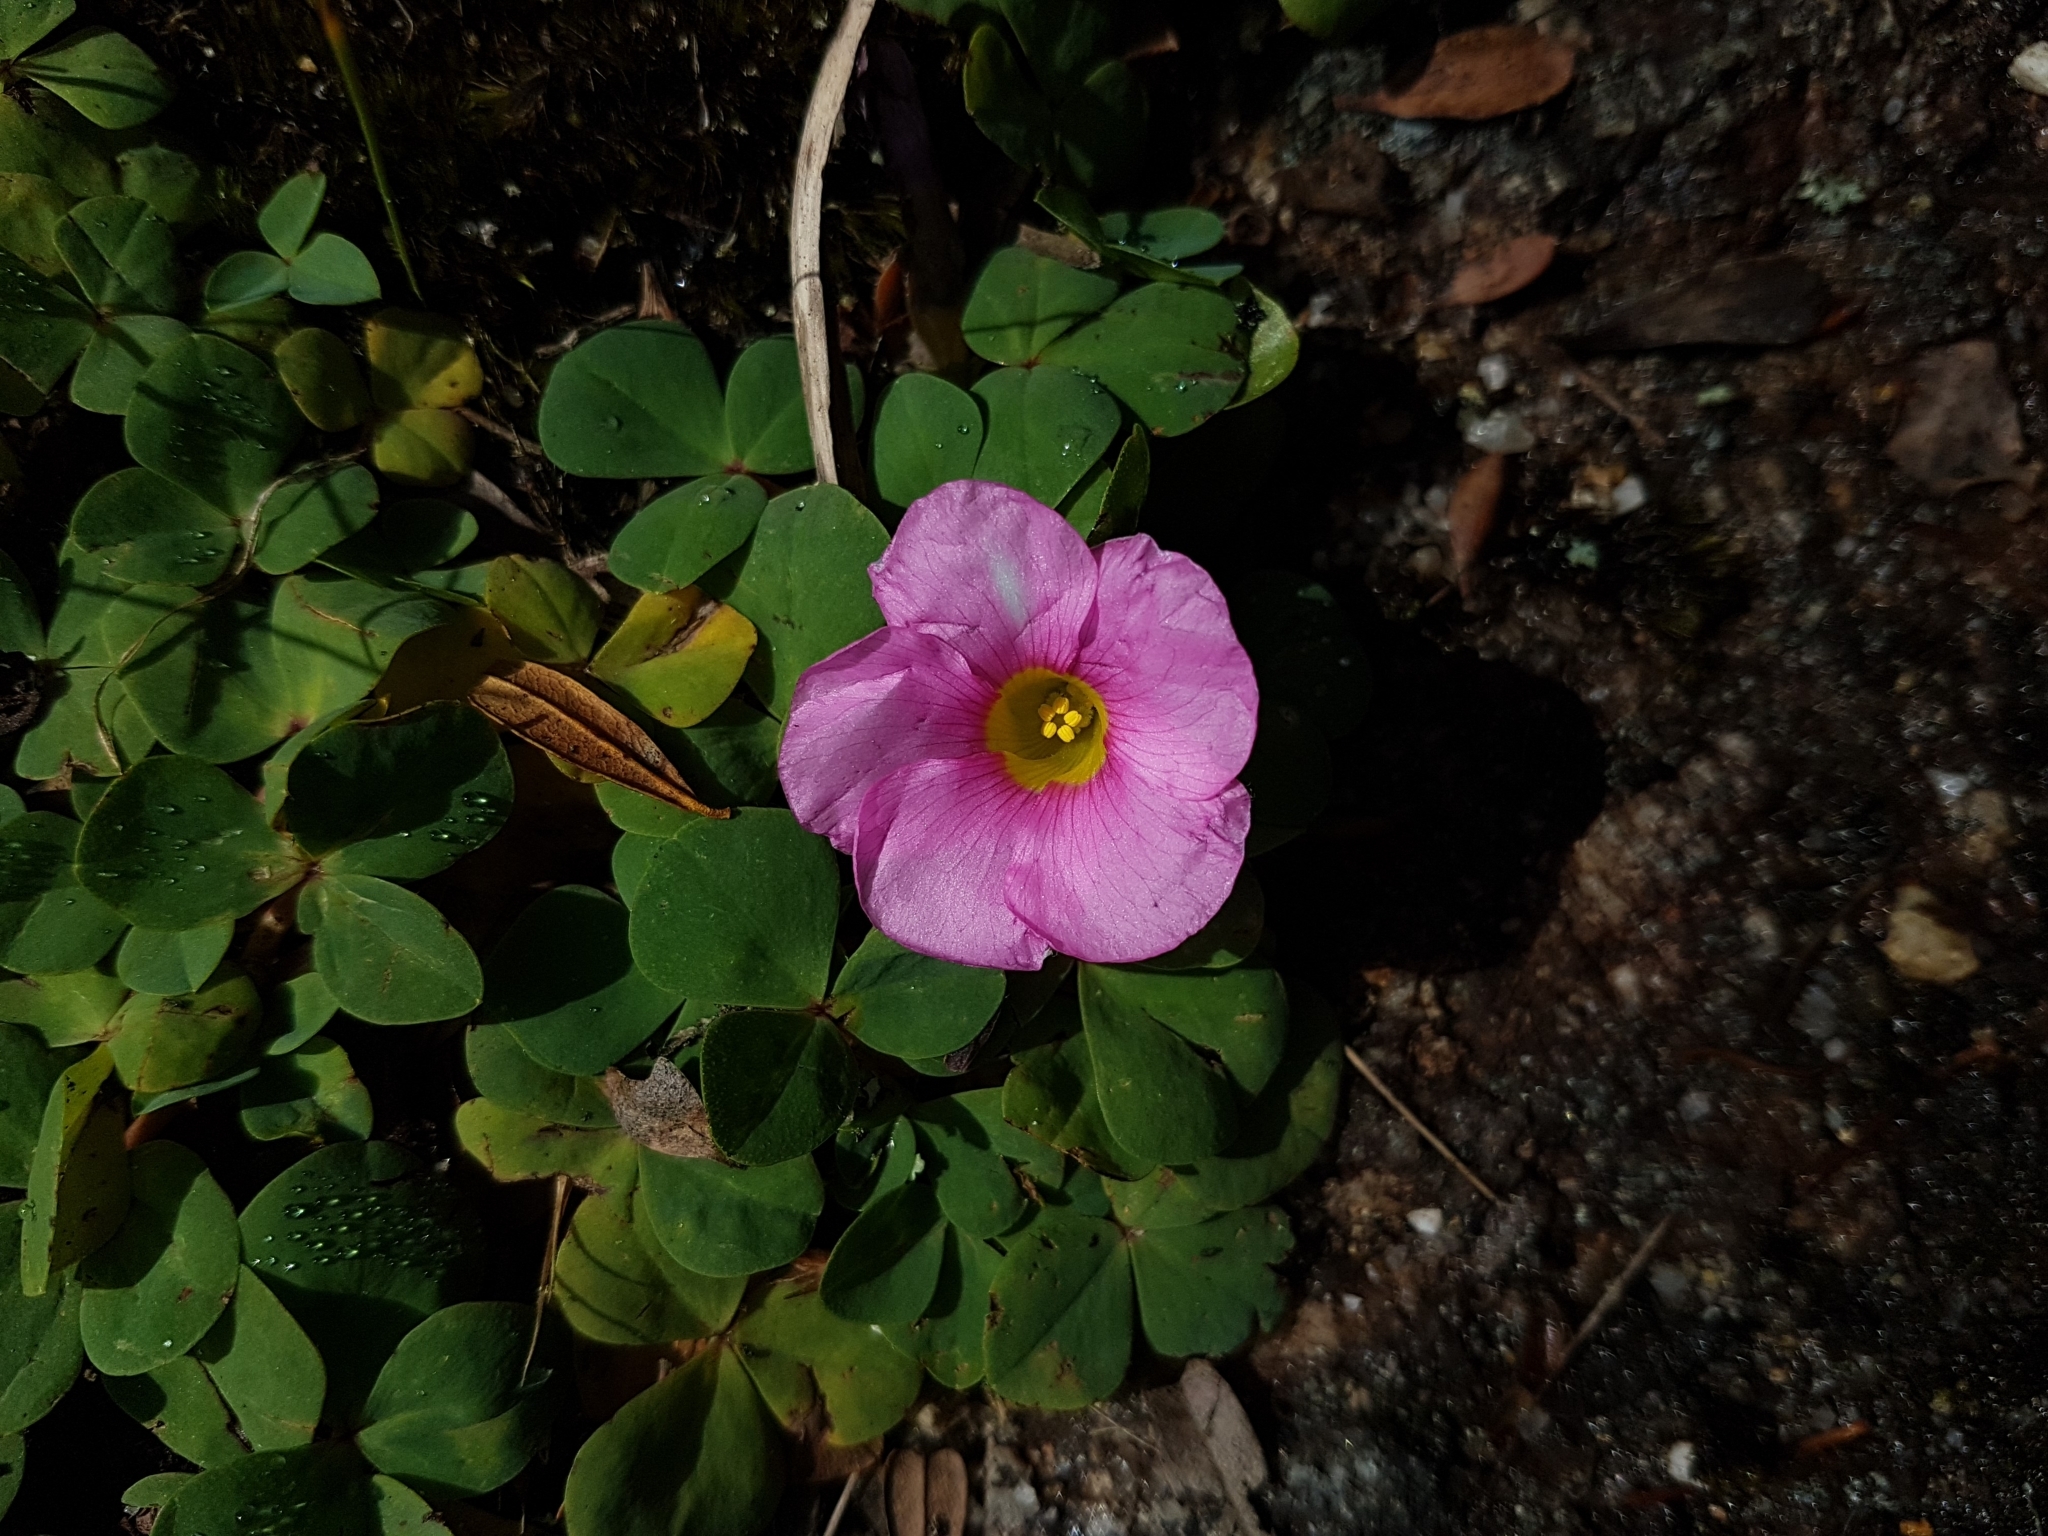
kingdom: Plantae
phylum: Tracheophyta
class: Magnoliopsida
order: Oxalidales
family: Oxalidaceae
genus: Oxalis
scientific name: Oxalis purpurea
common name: Purple woodsorrel
